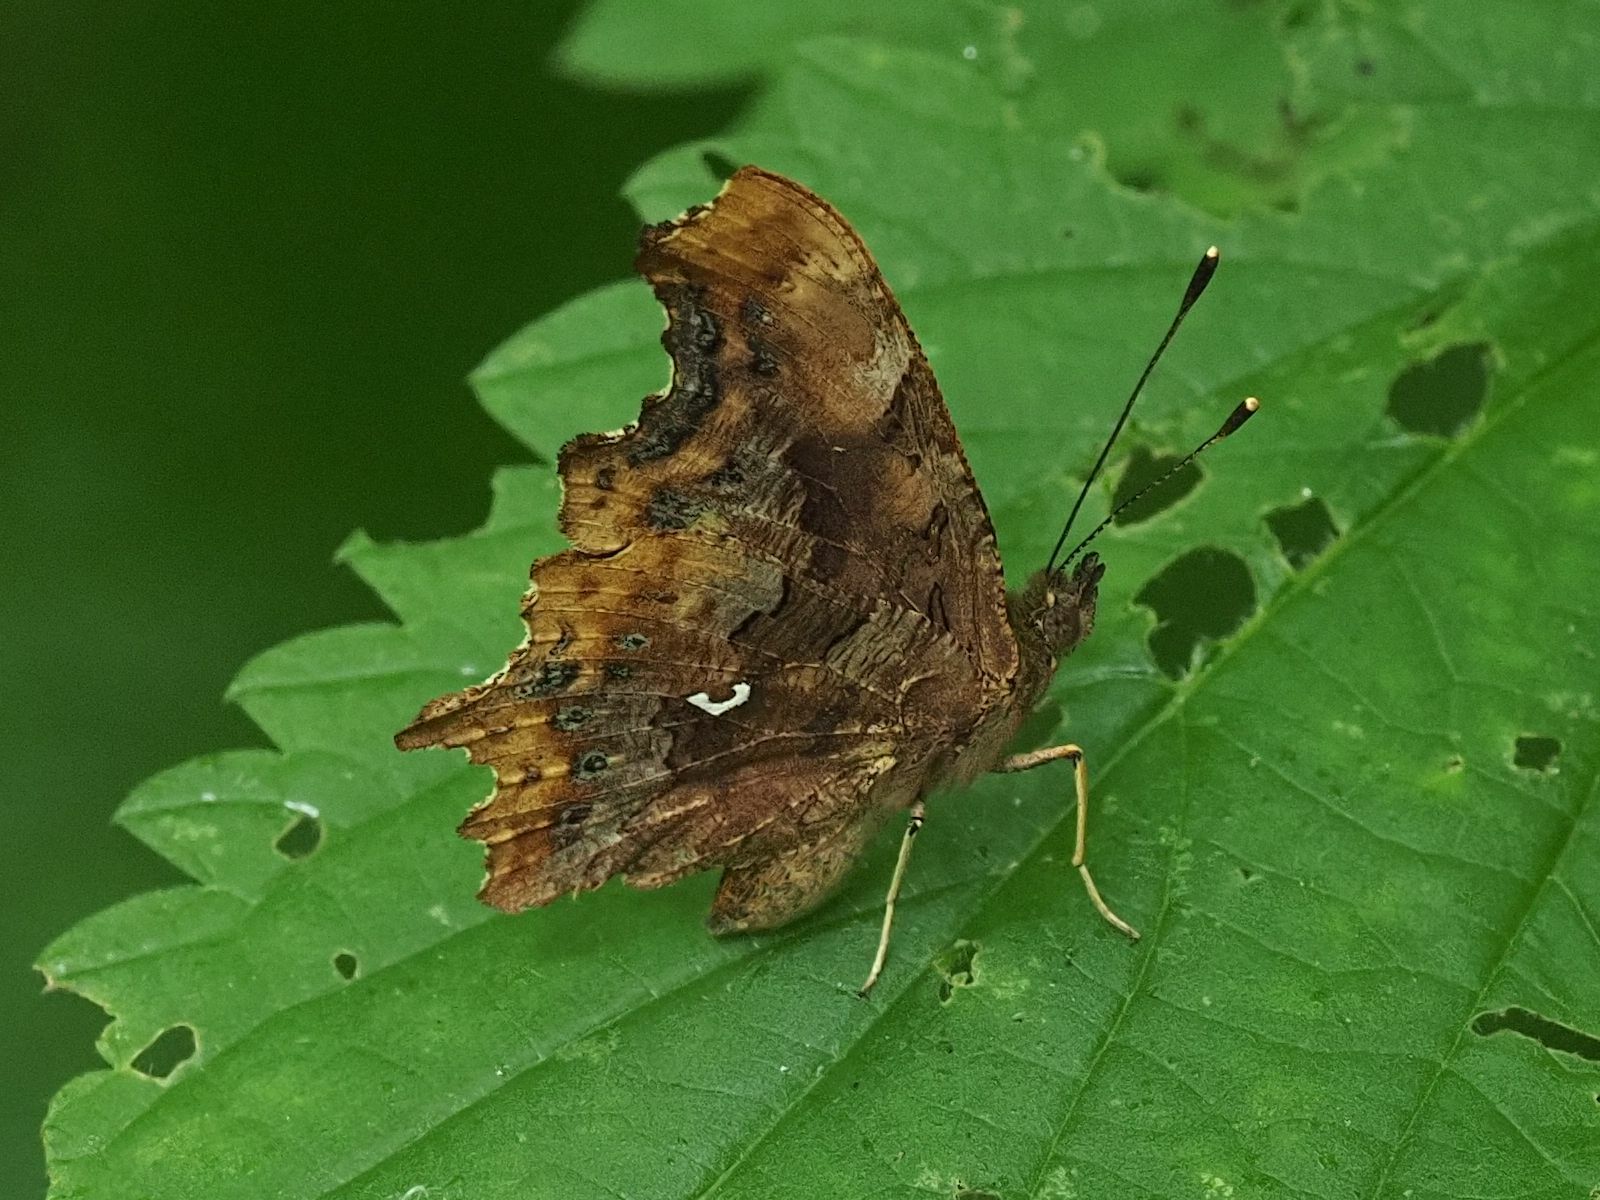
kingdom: Animalia
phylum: Arthropoda
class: Insecta
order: Lepidoptera
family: Nymphalidae
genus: Polygonia
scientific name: Polygonia c-album
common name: Comma
